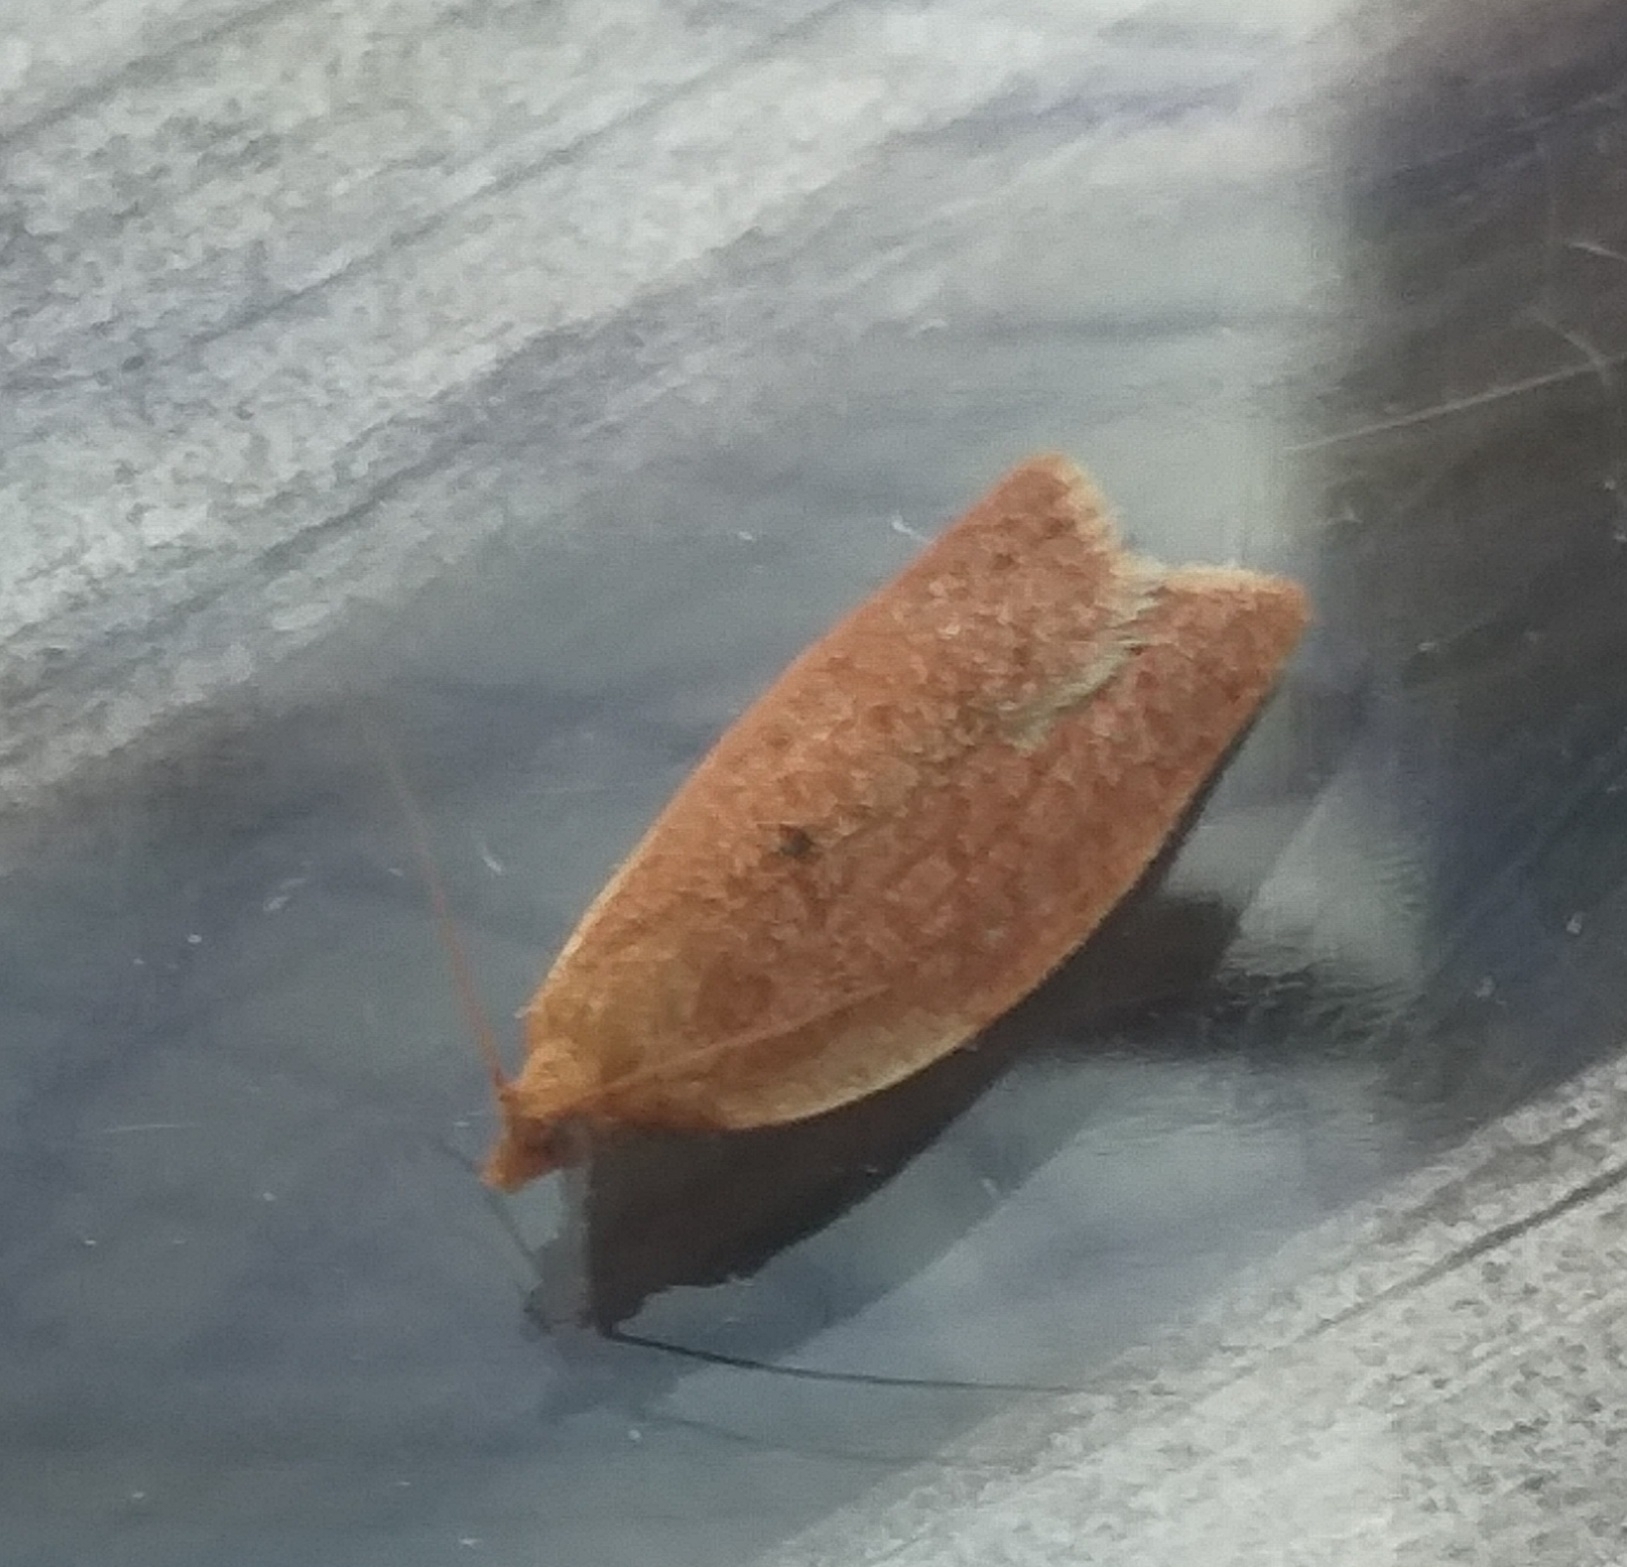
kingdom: Animalia
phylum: Arthropoda
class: Insecta
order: Lepidoptera
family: Tortricidae
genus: Clepsis
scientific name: Clepsis consimilana
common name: Privet tortrix
